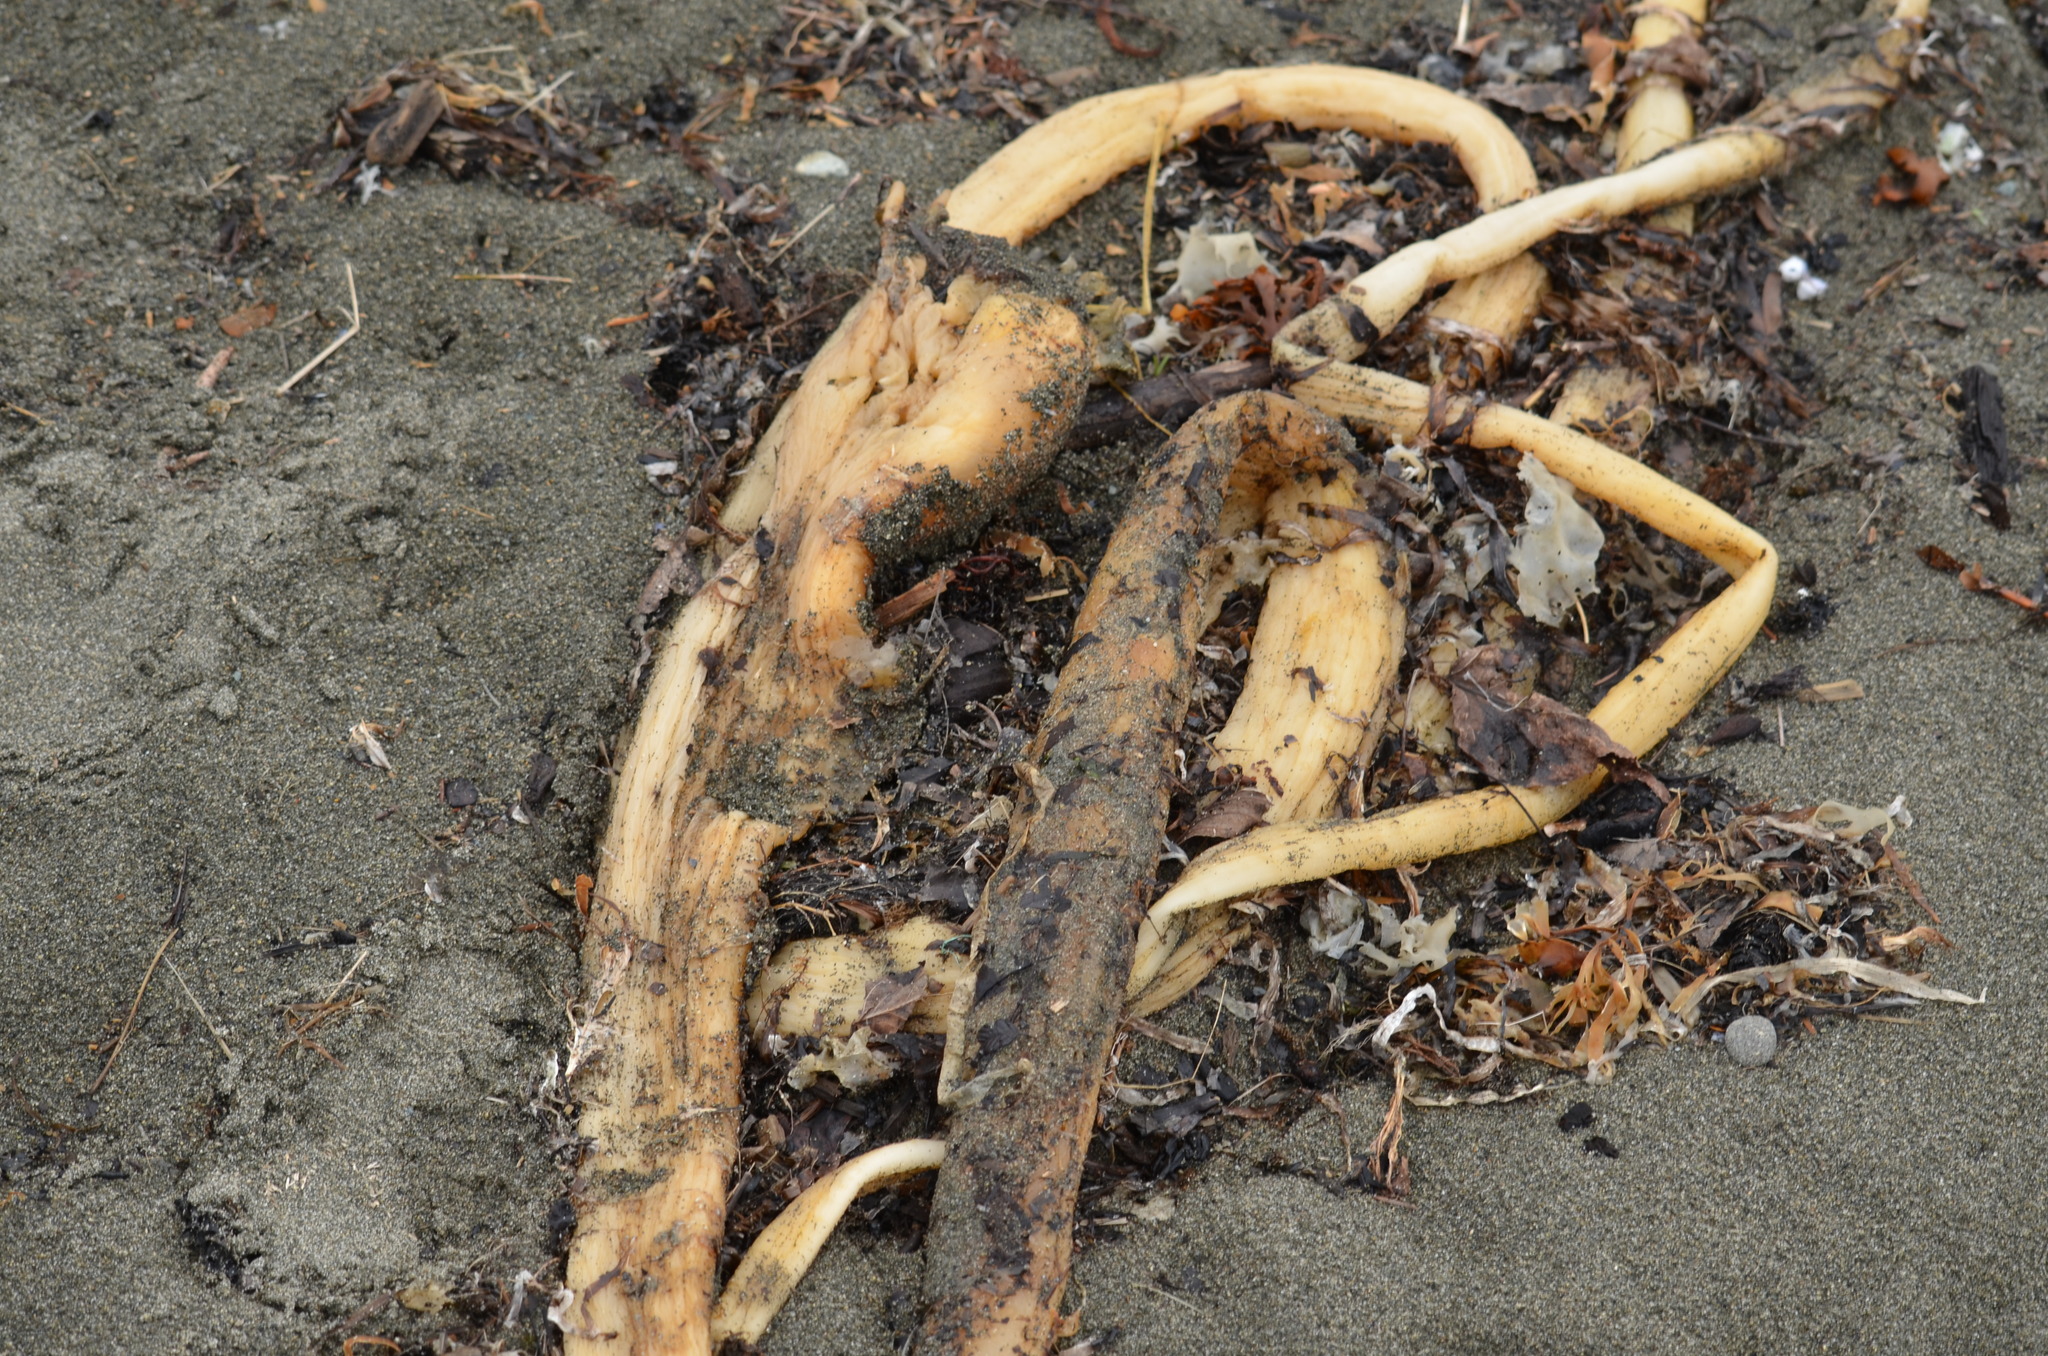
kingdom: Chromista
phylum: Ochrophyta
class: Phaeophyceae
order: Laminariales
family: Laminariaceae
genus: Nereocystis
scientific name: Nereocystis luetkeana
